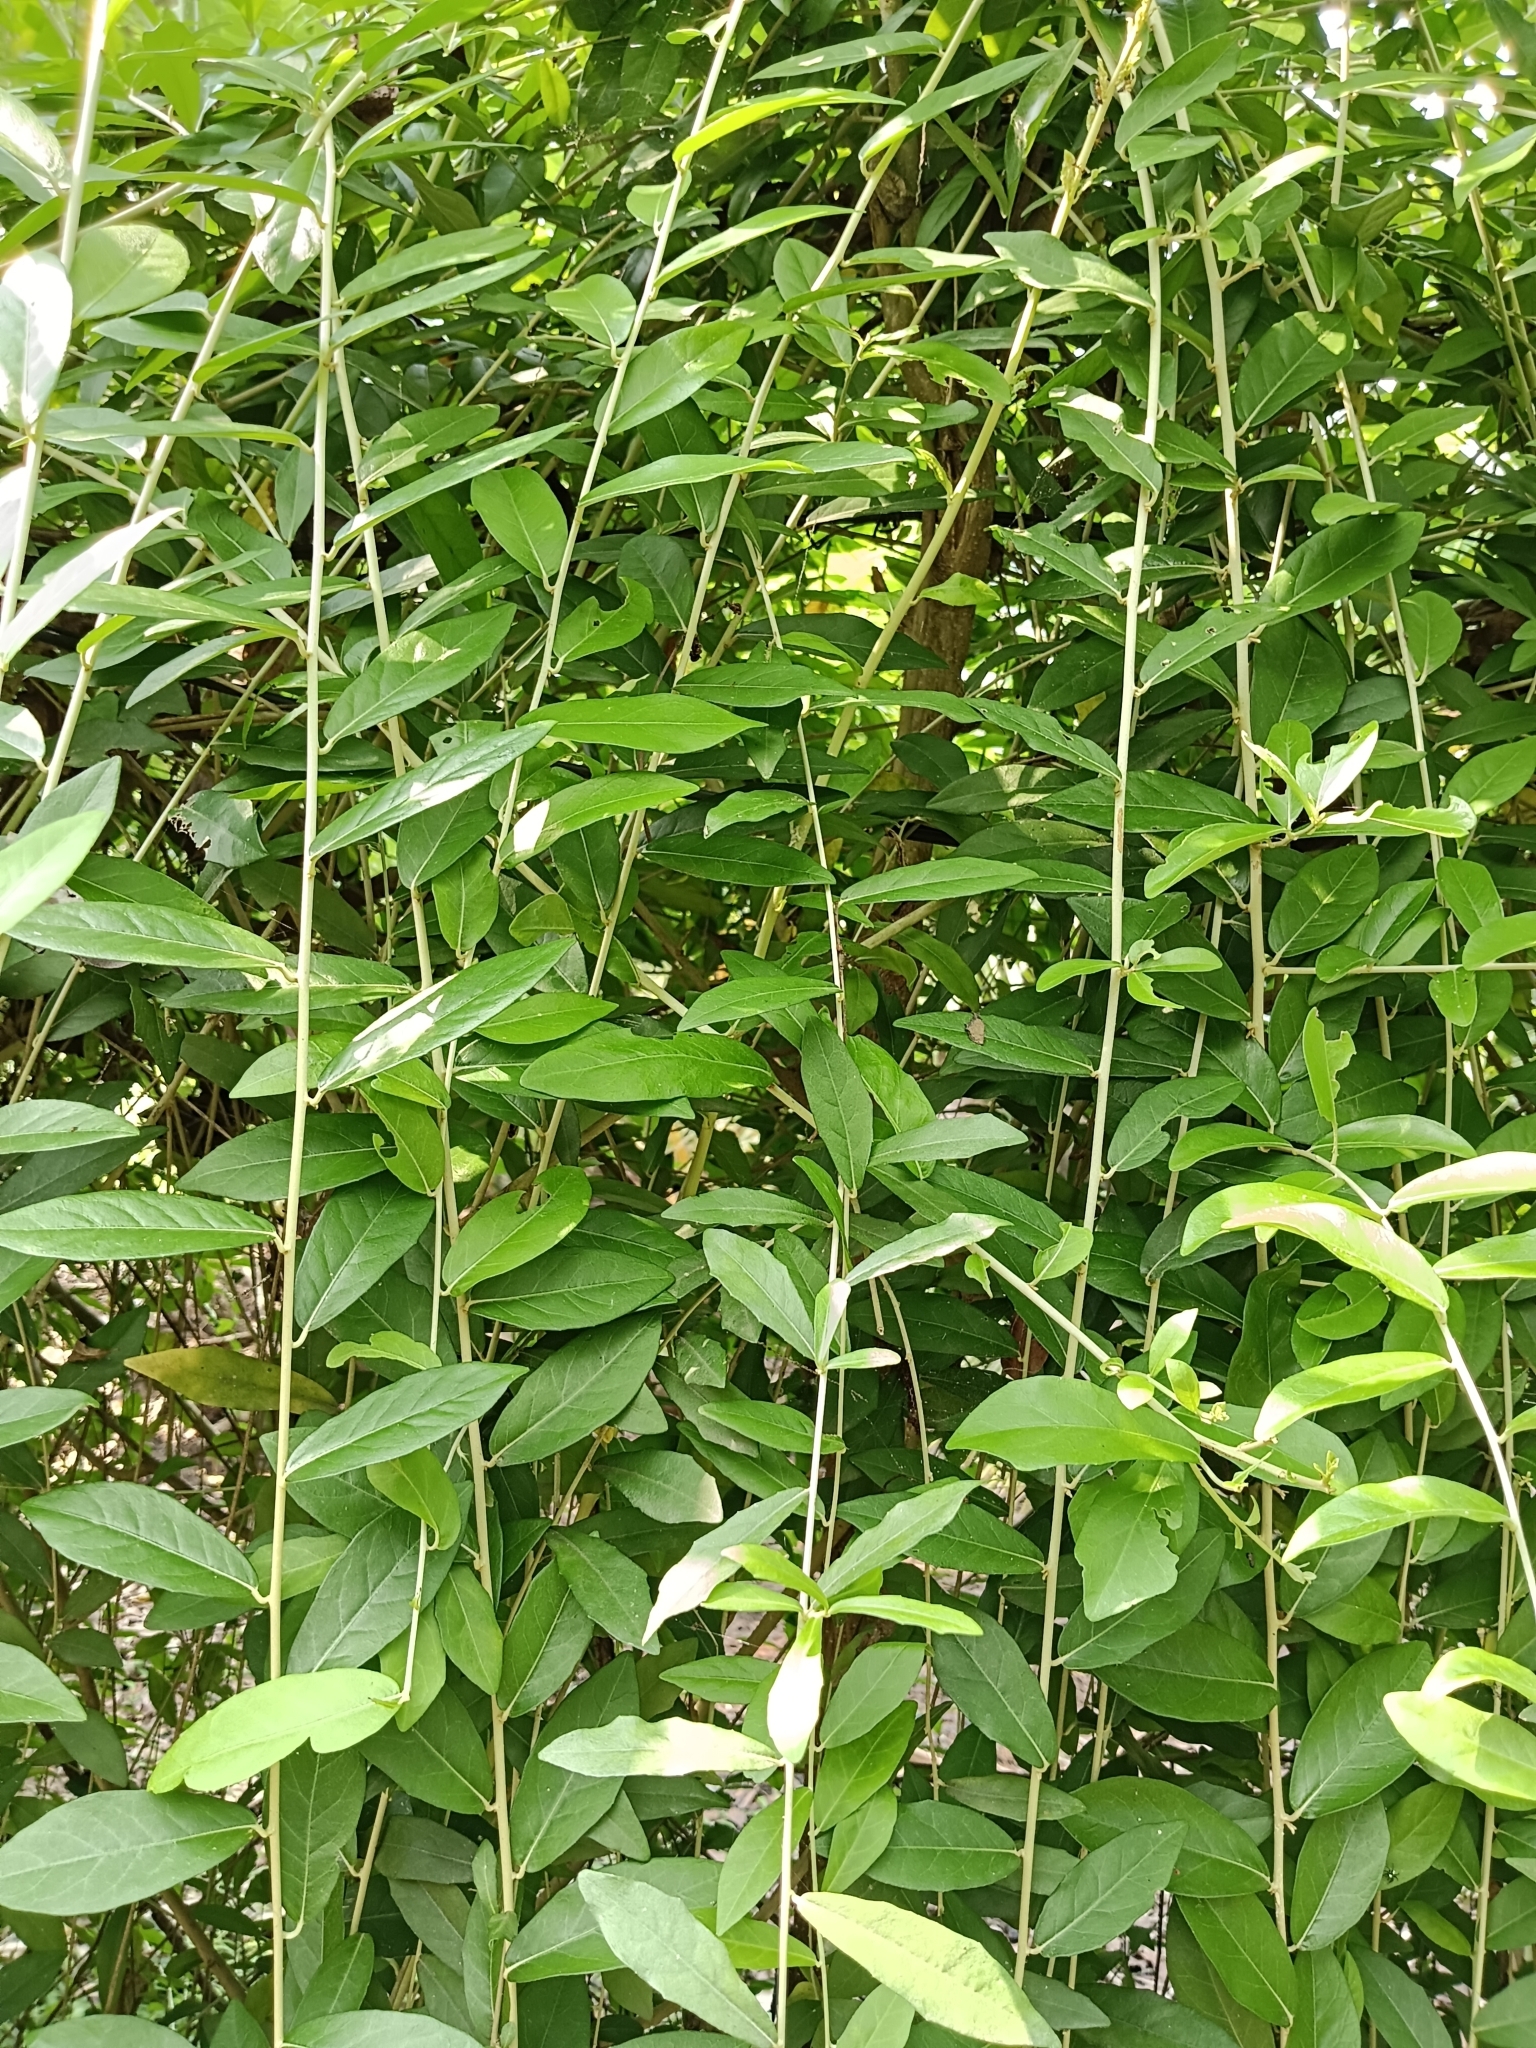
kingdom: Plantae
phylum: Tracheophyta
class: Magnoliopsida
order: Asterales
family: Asteraceae
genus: Tarlmounia
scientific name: Tarlmounia elliptica
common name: Kheua sa lot
